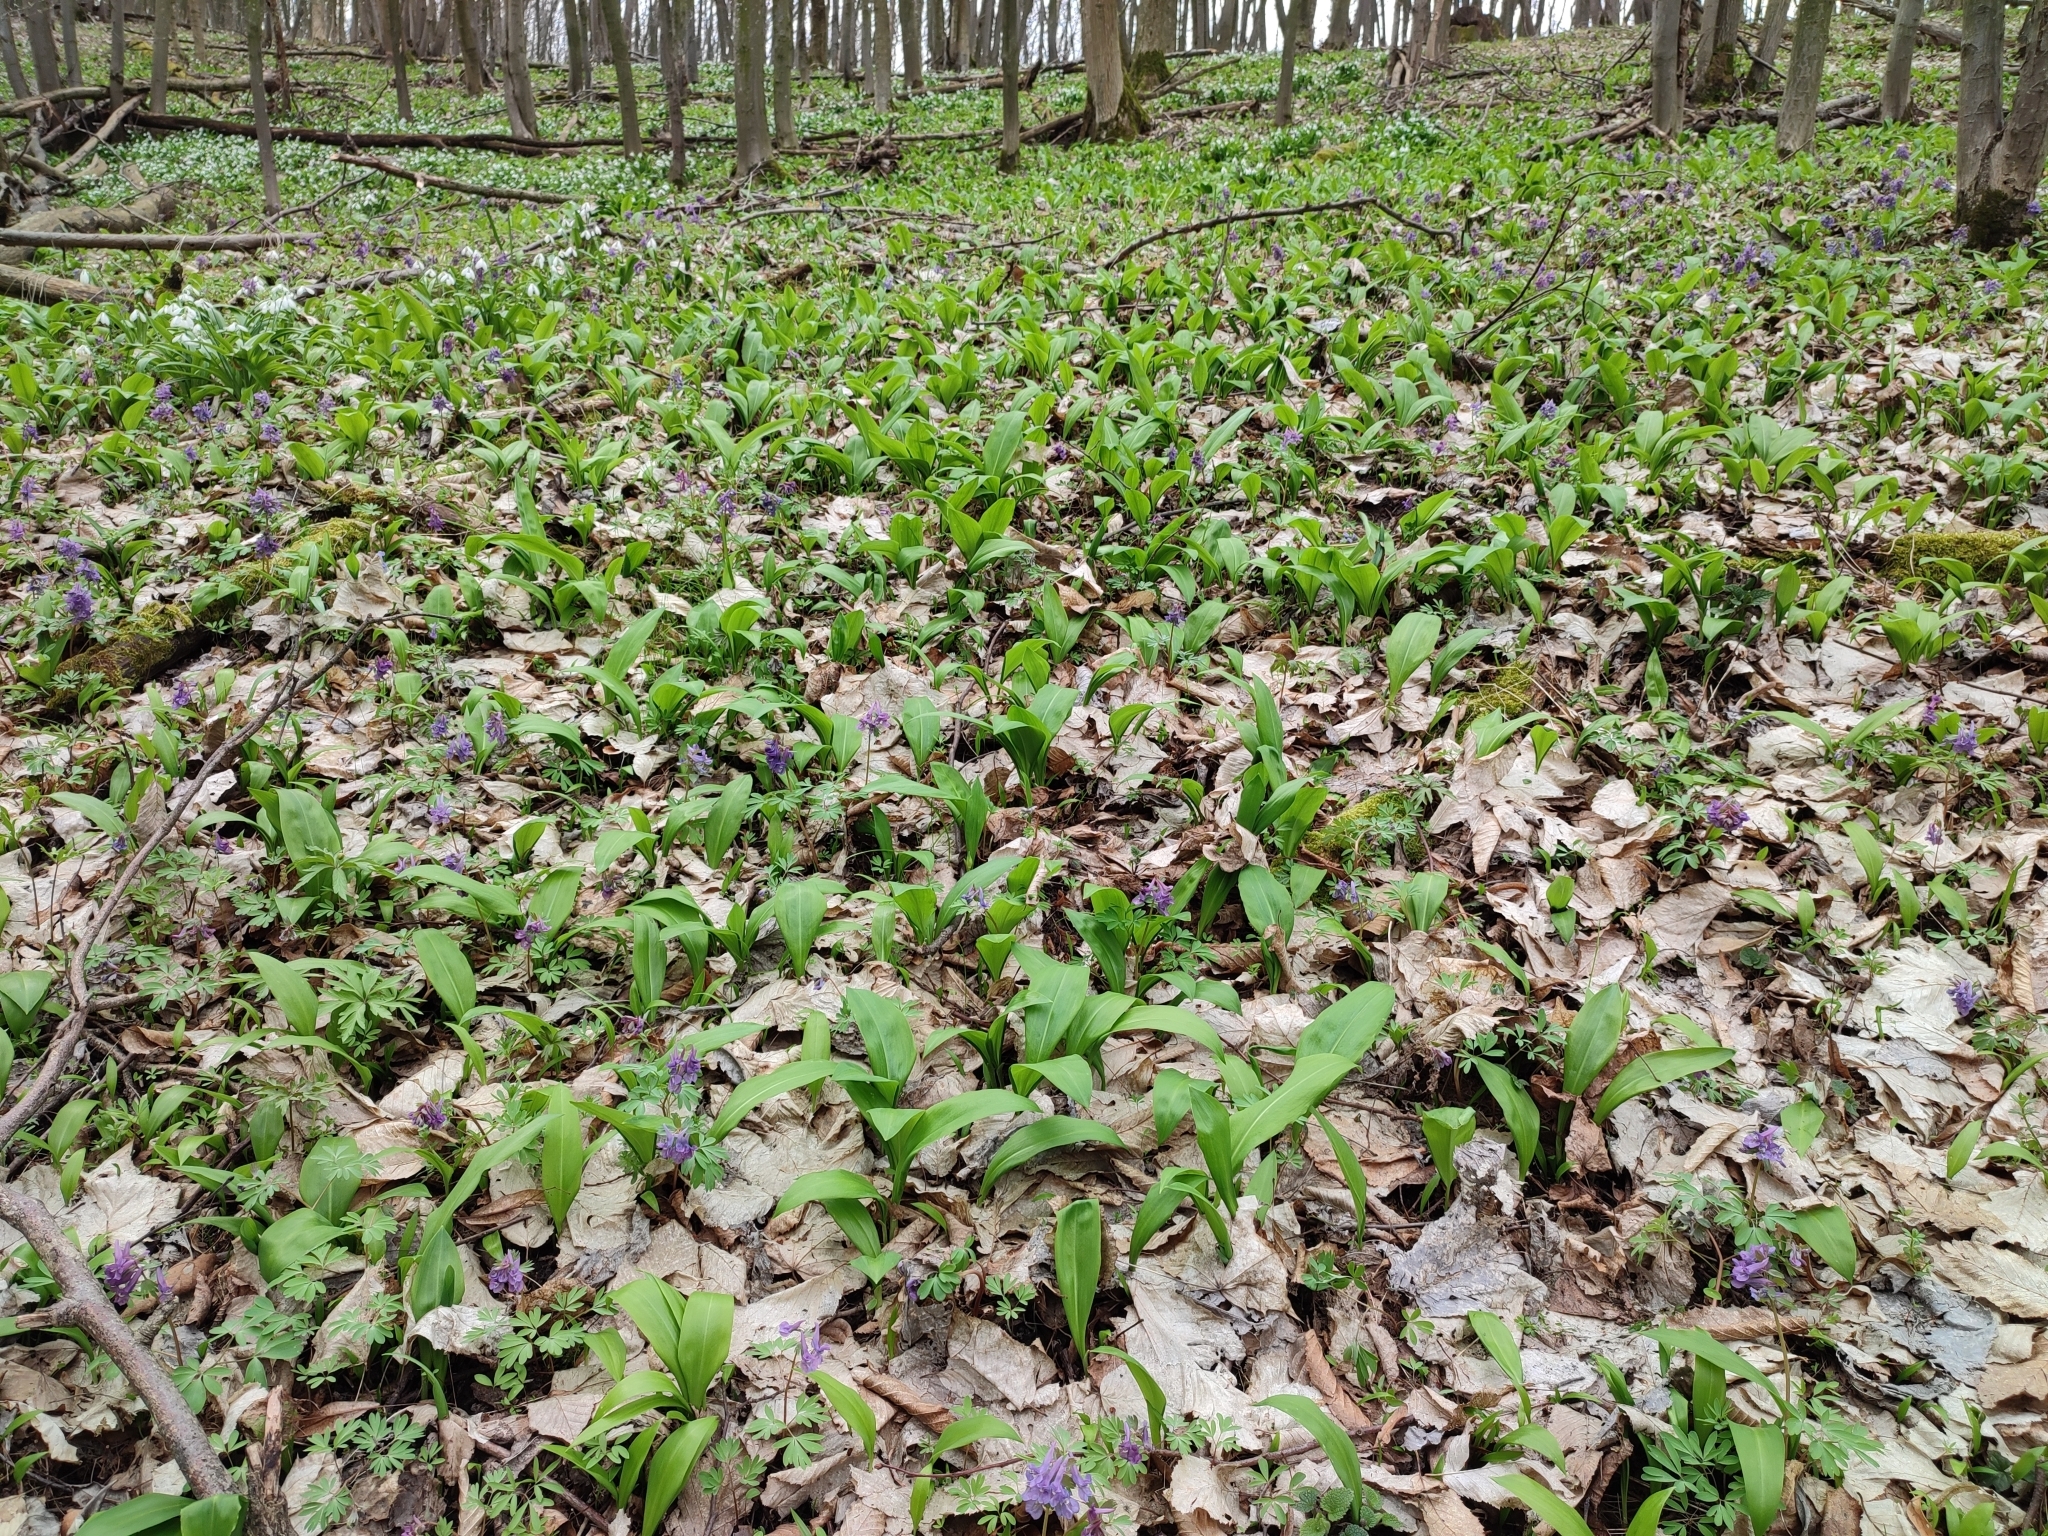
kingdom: Plantae
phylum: Tracheophyta
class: Liliopsida
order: Asparagales
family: Amaryllidaceae
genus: Allium
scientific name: Allium ursinum
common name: Ramsons
